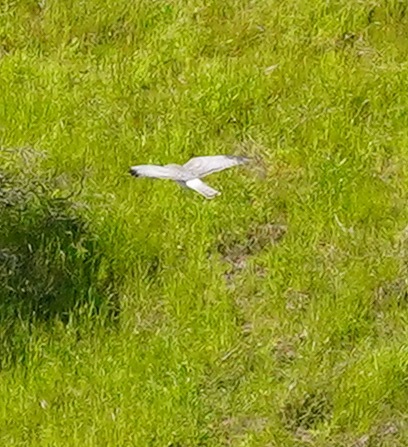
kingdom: Animalia
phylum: Chordata
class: Aves
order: Accipitriformes
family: Accipitridae
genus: Circus
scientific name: Circus cyaneus
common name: Hen harrier
